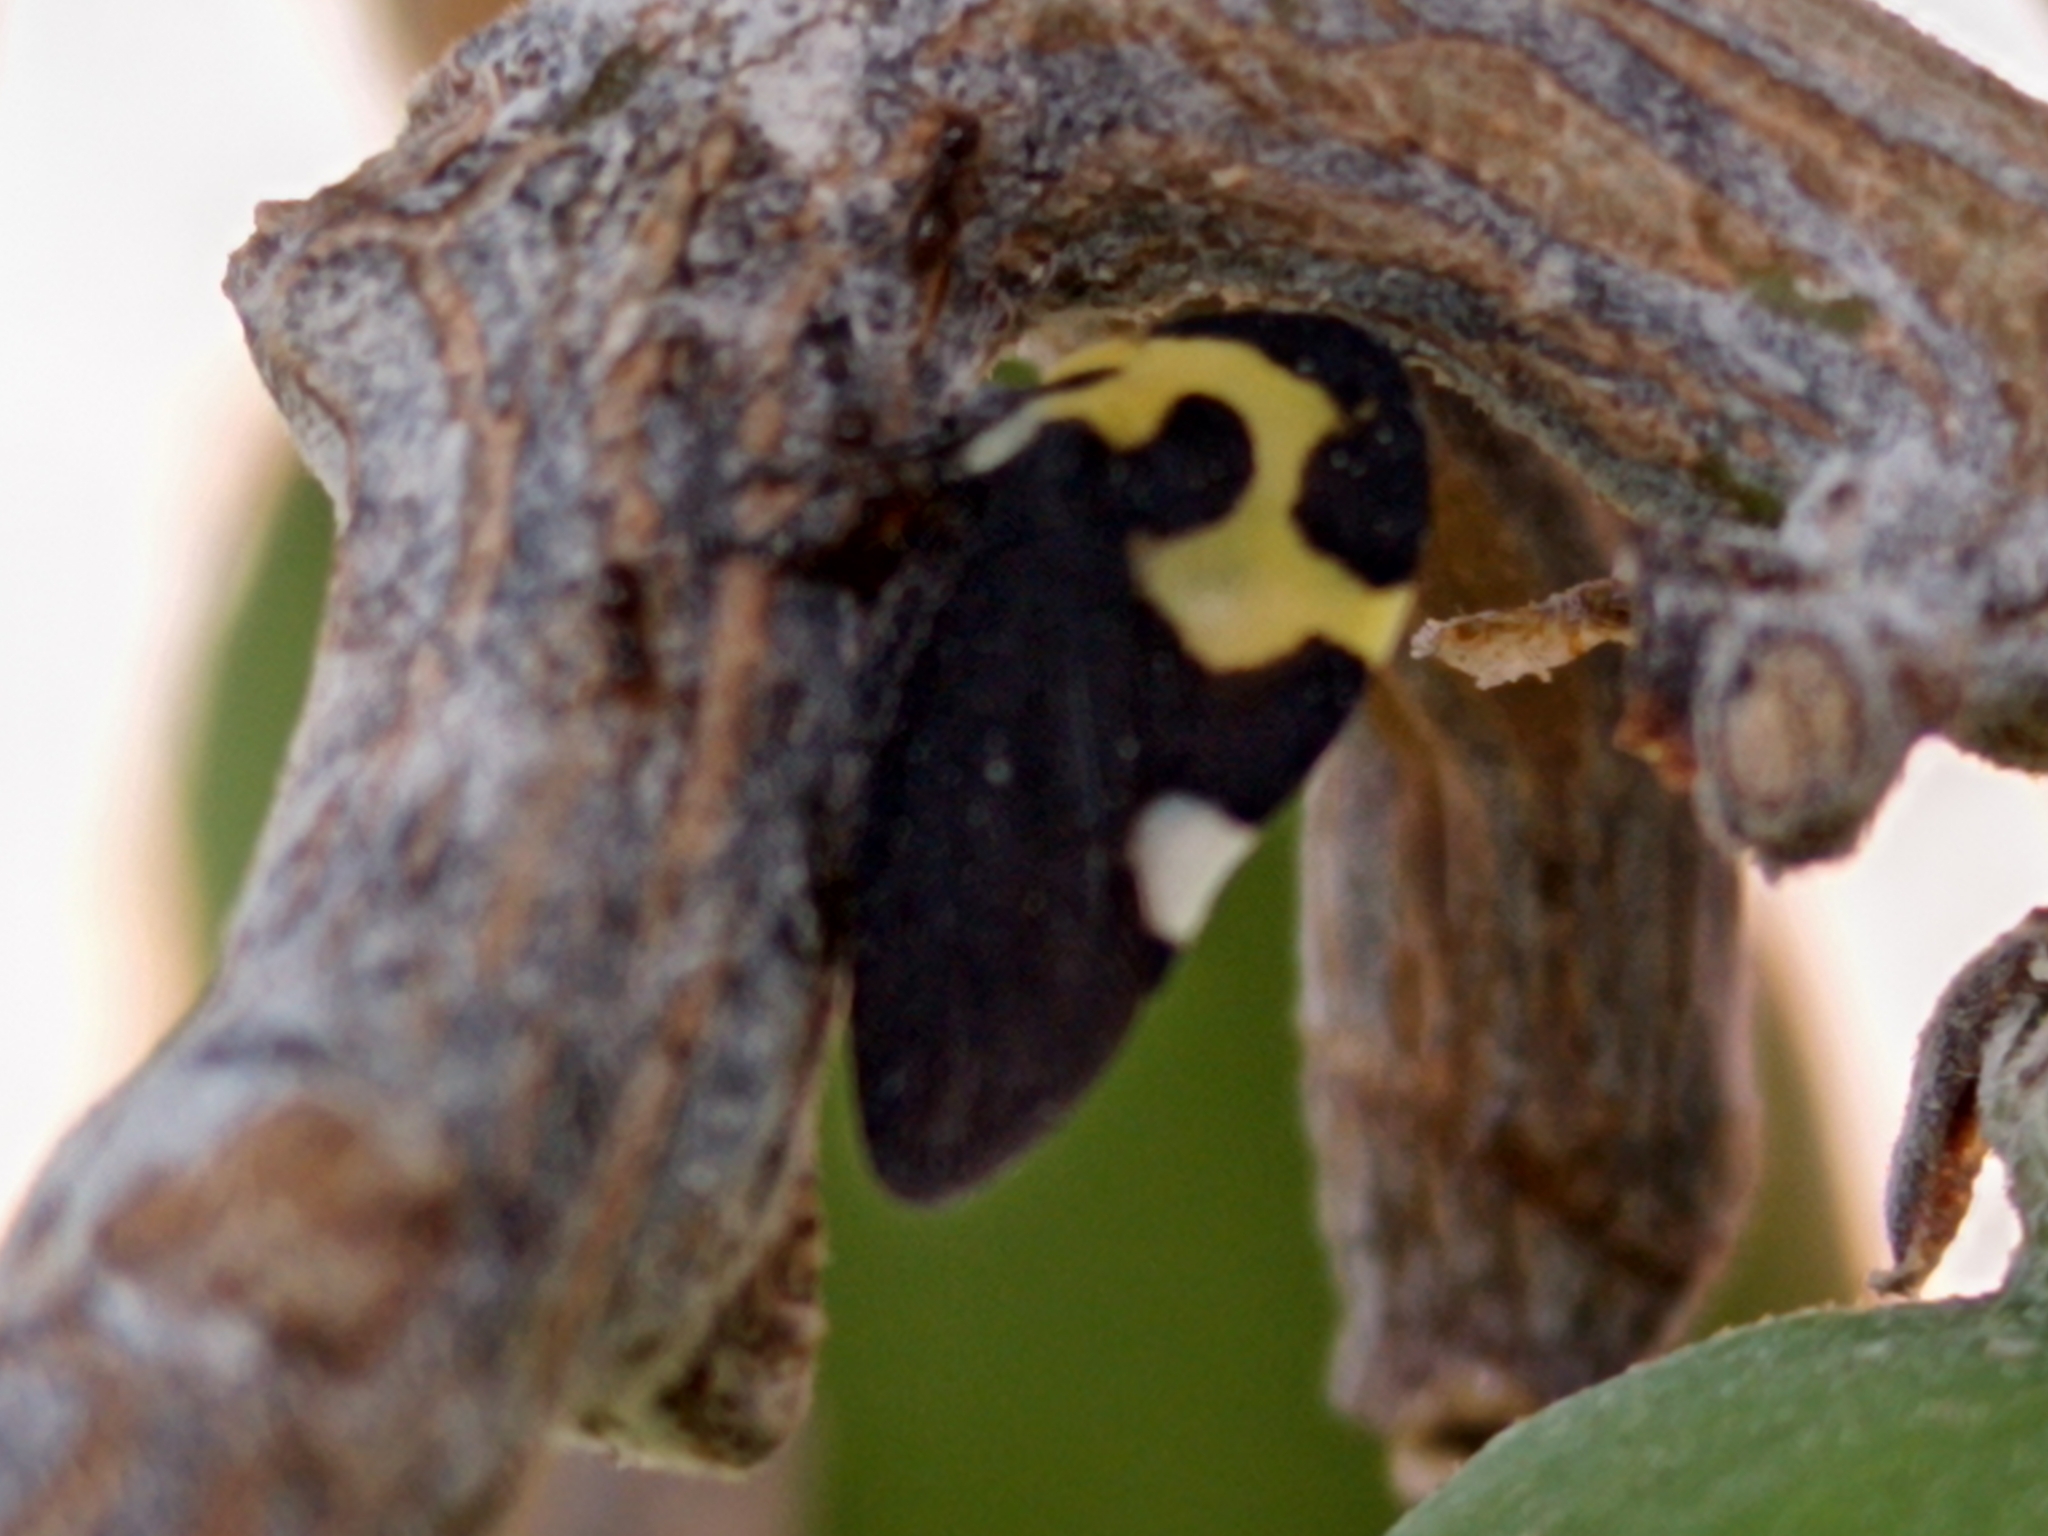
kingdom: Animalia
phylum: Arthropoda
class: Insecta
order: Hemiptera
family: Membracidae
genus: Membracis
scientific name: Membracis mexicana
